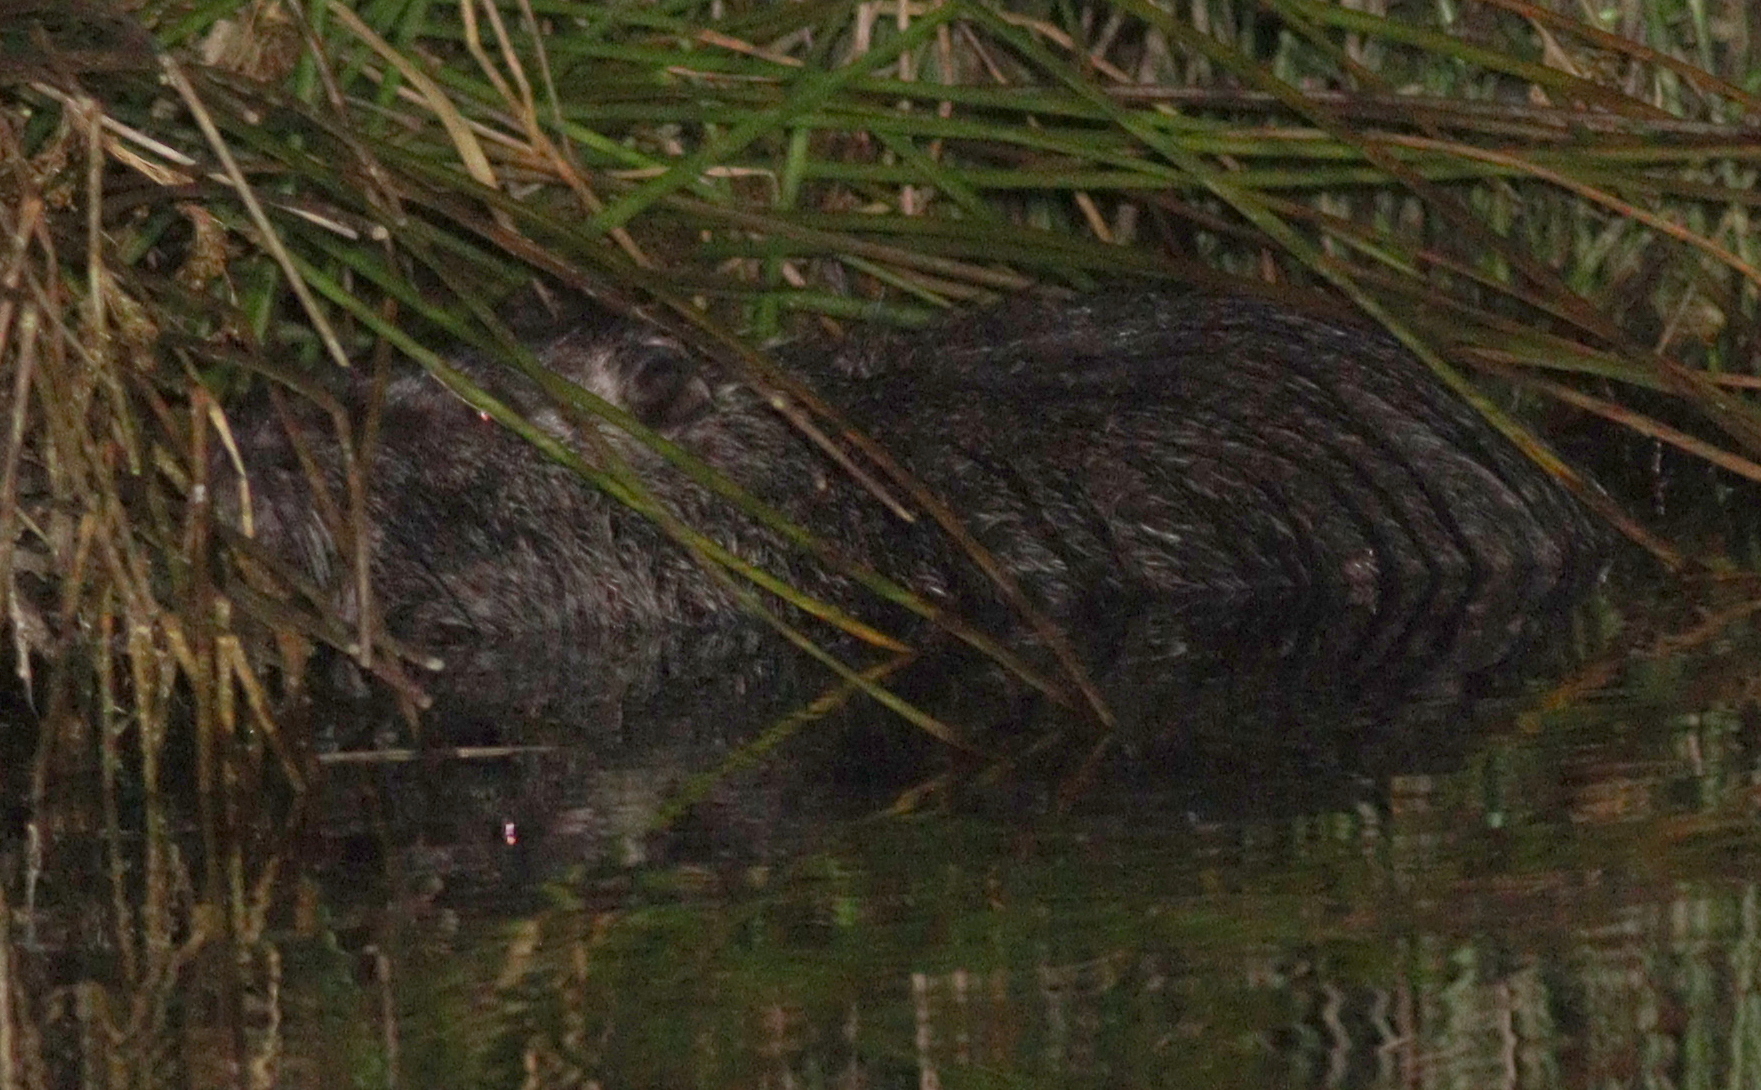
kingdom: Animalia
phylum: Chordata
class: Mammalia
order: Rodentia
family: Myocastoridae
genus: Myocastor
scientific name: Myocastor coypus
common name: Coypu
